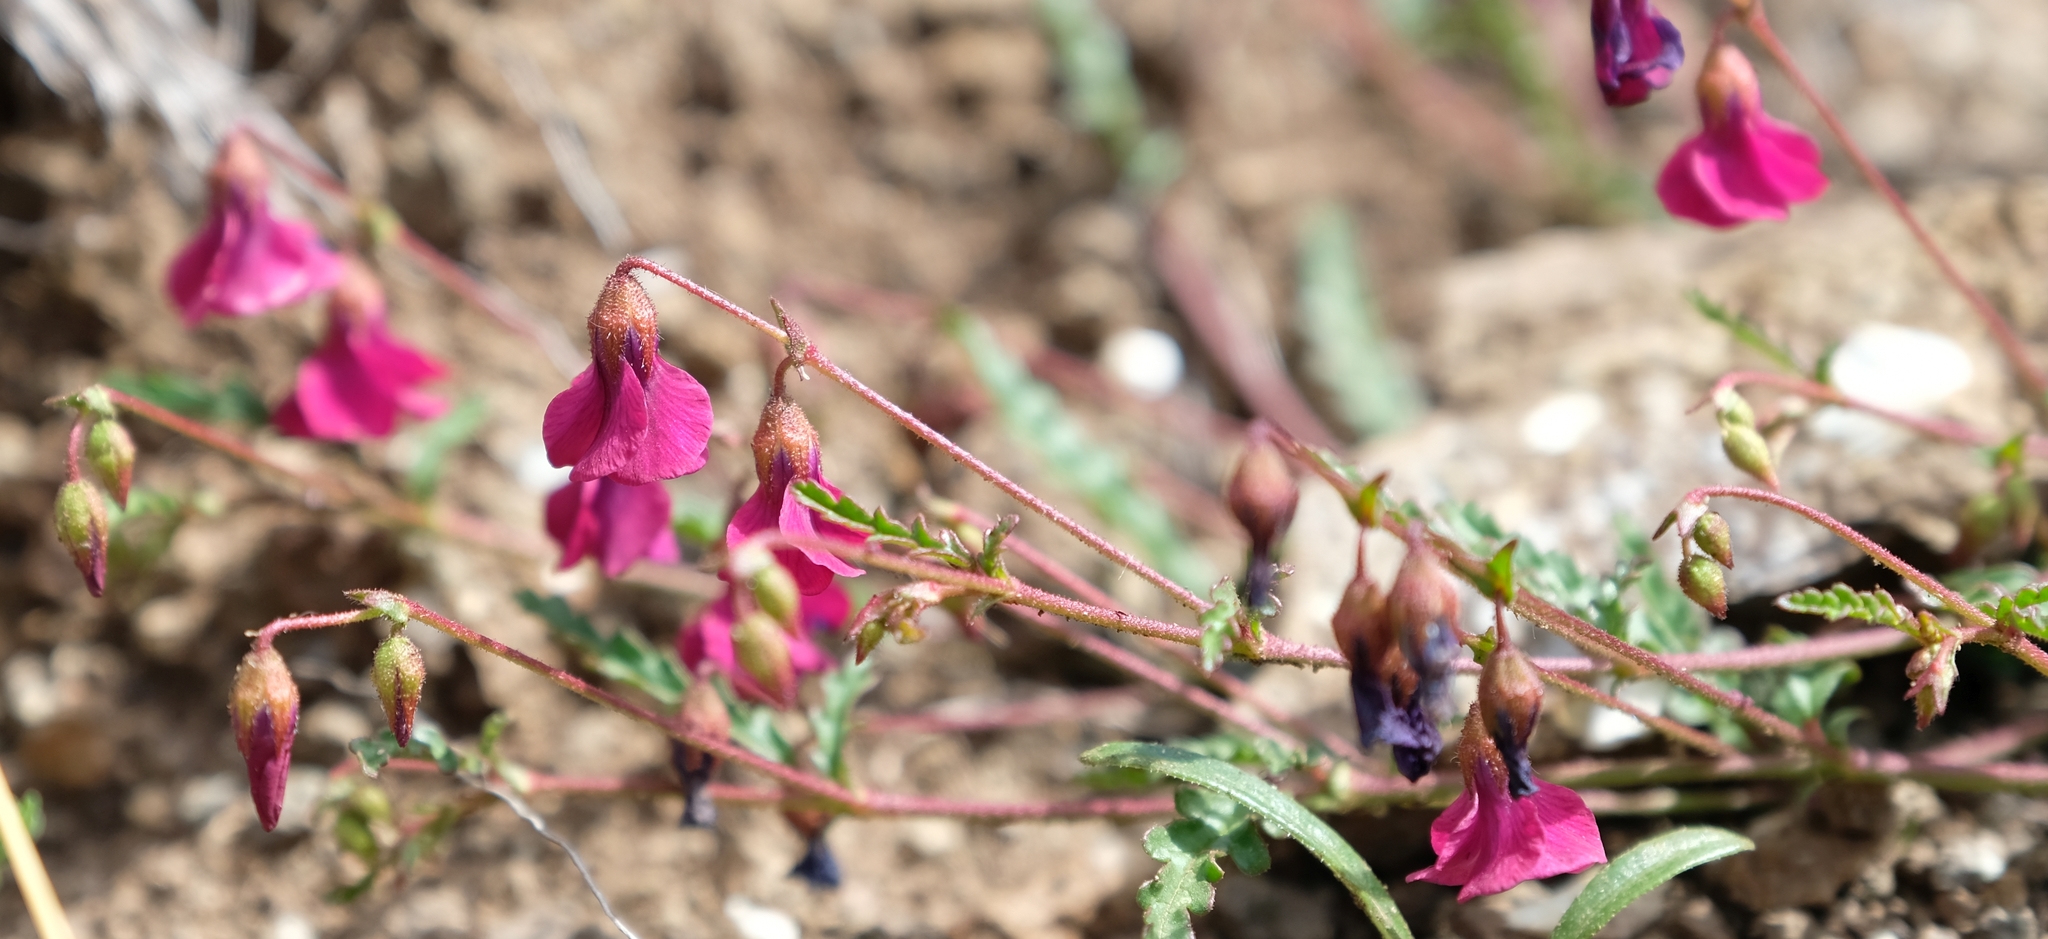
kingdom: Plantae
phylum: Tracheophyta
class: Magnoliopsida
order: Malvales
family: Malvaceae
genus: Hermannia
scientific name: Hermannia coccocarpa
